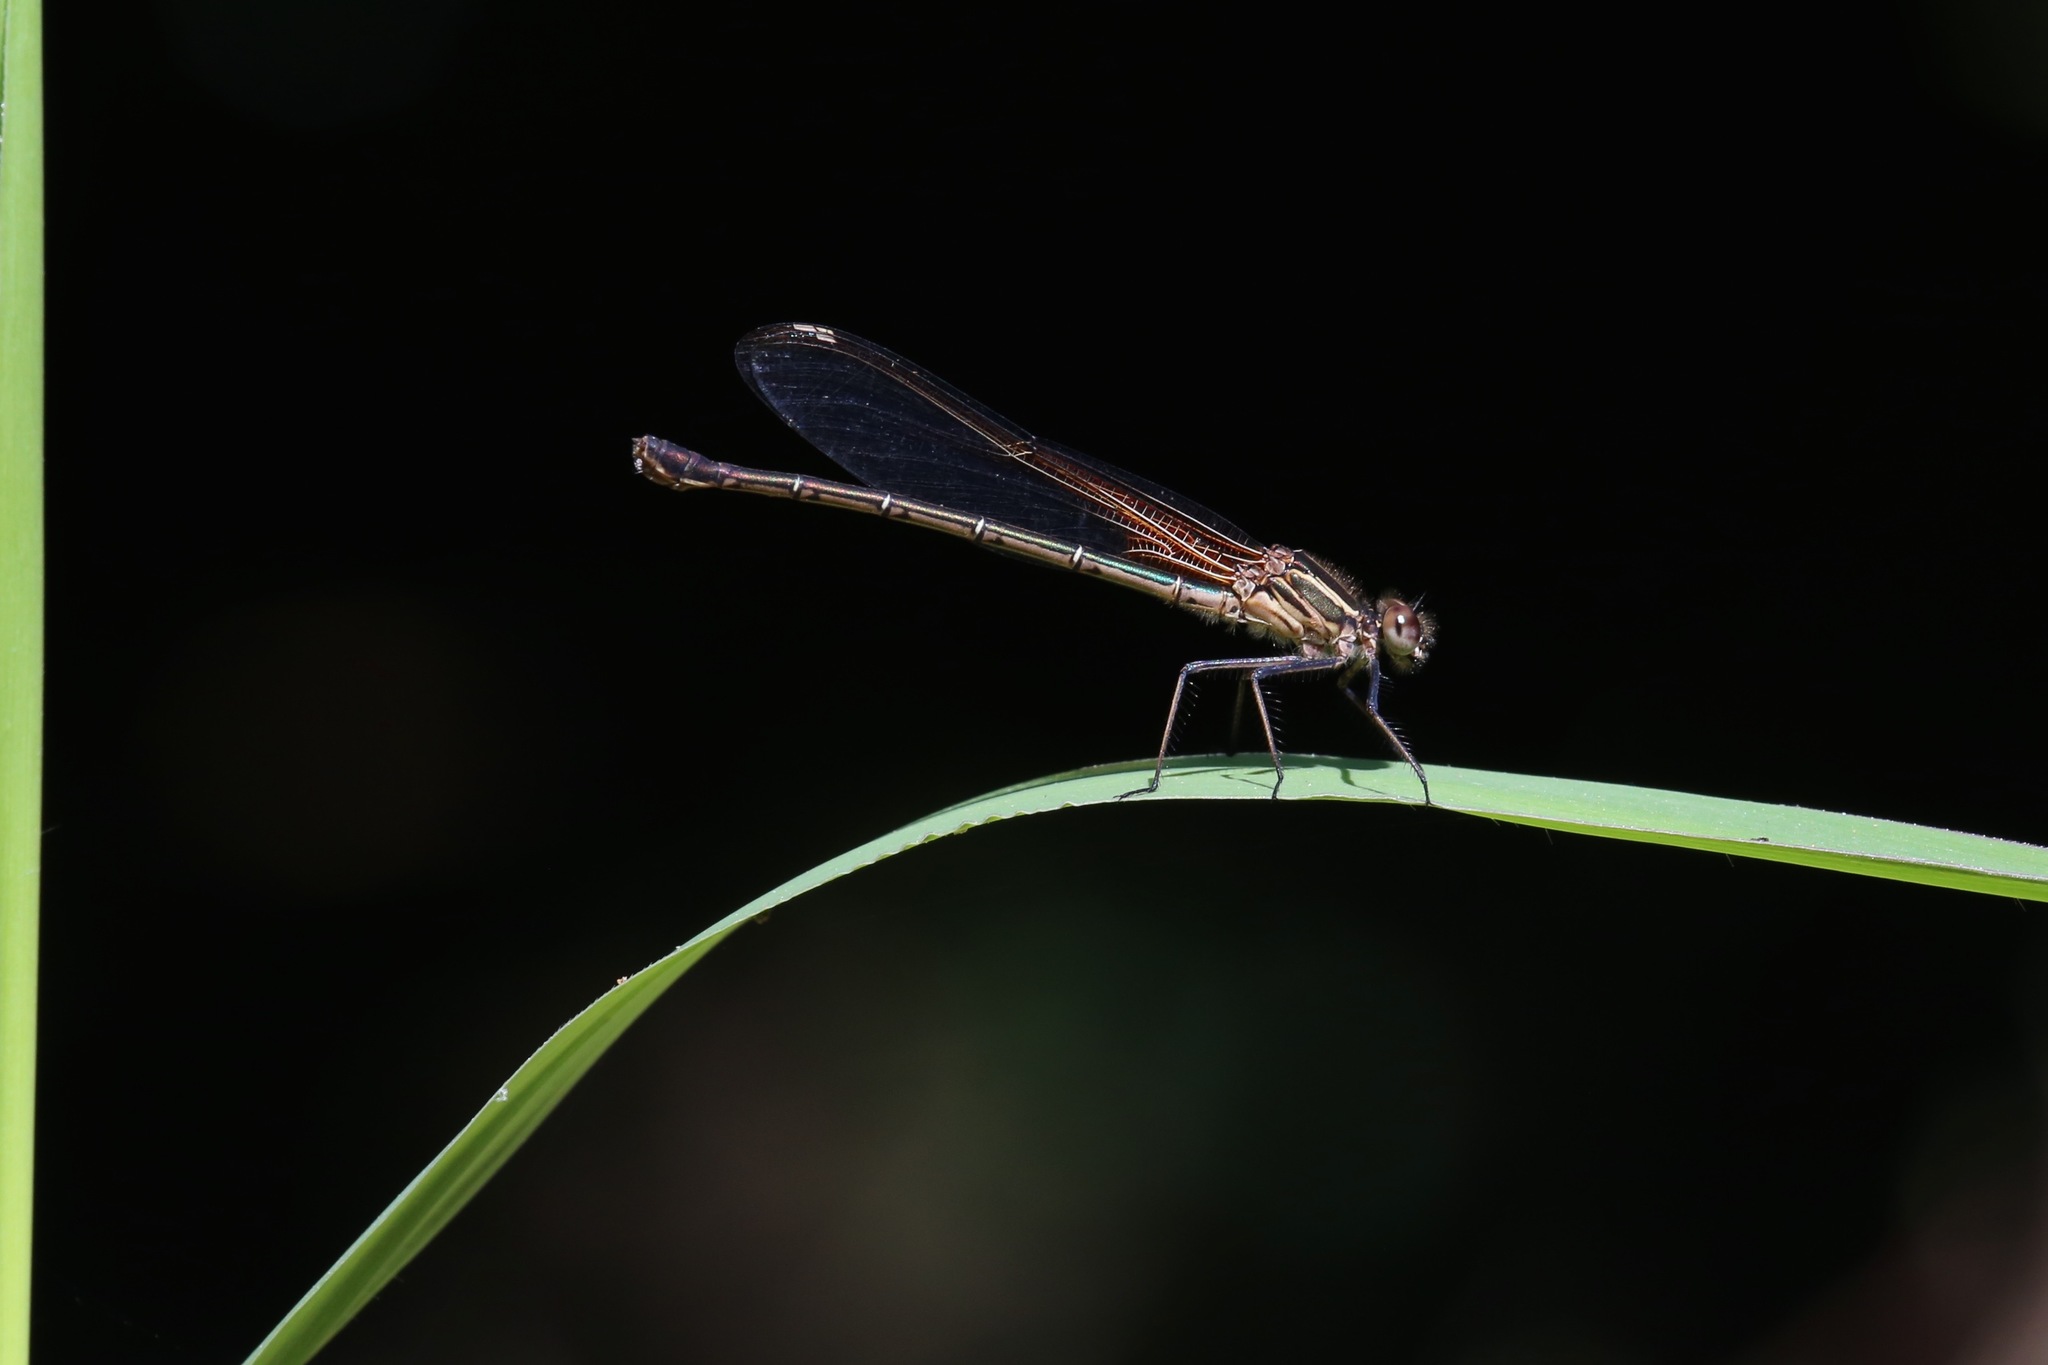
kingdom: Animalia
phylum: Arthropoda
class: Insecta
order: Odonata
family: Calopterygidae
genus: Hetaerina
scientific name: Hetaerina americana
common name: American rubyspot
